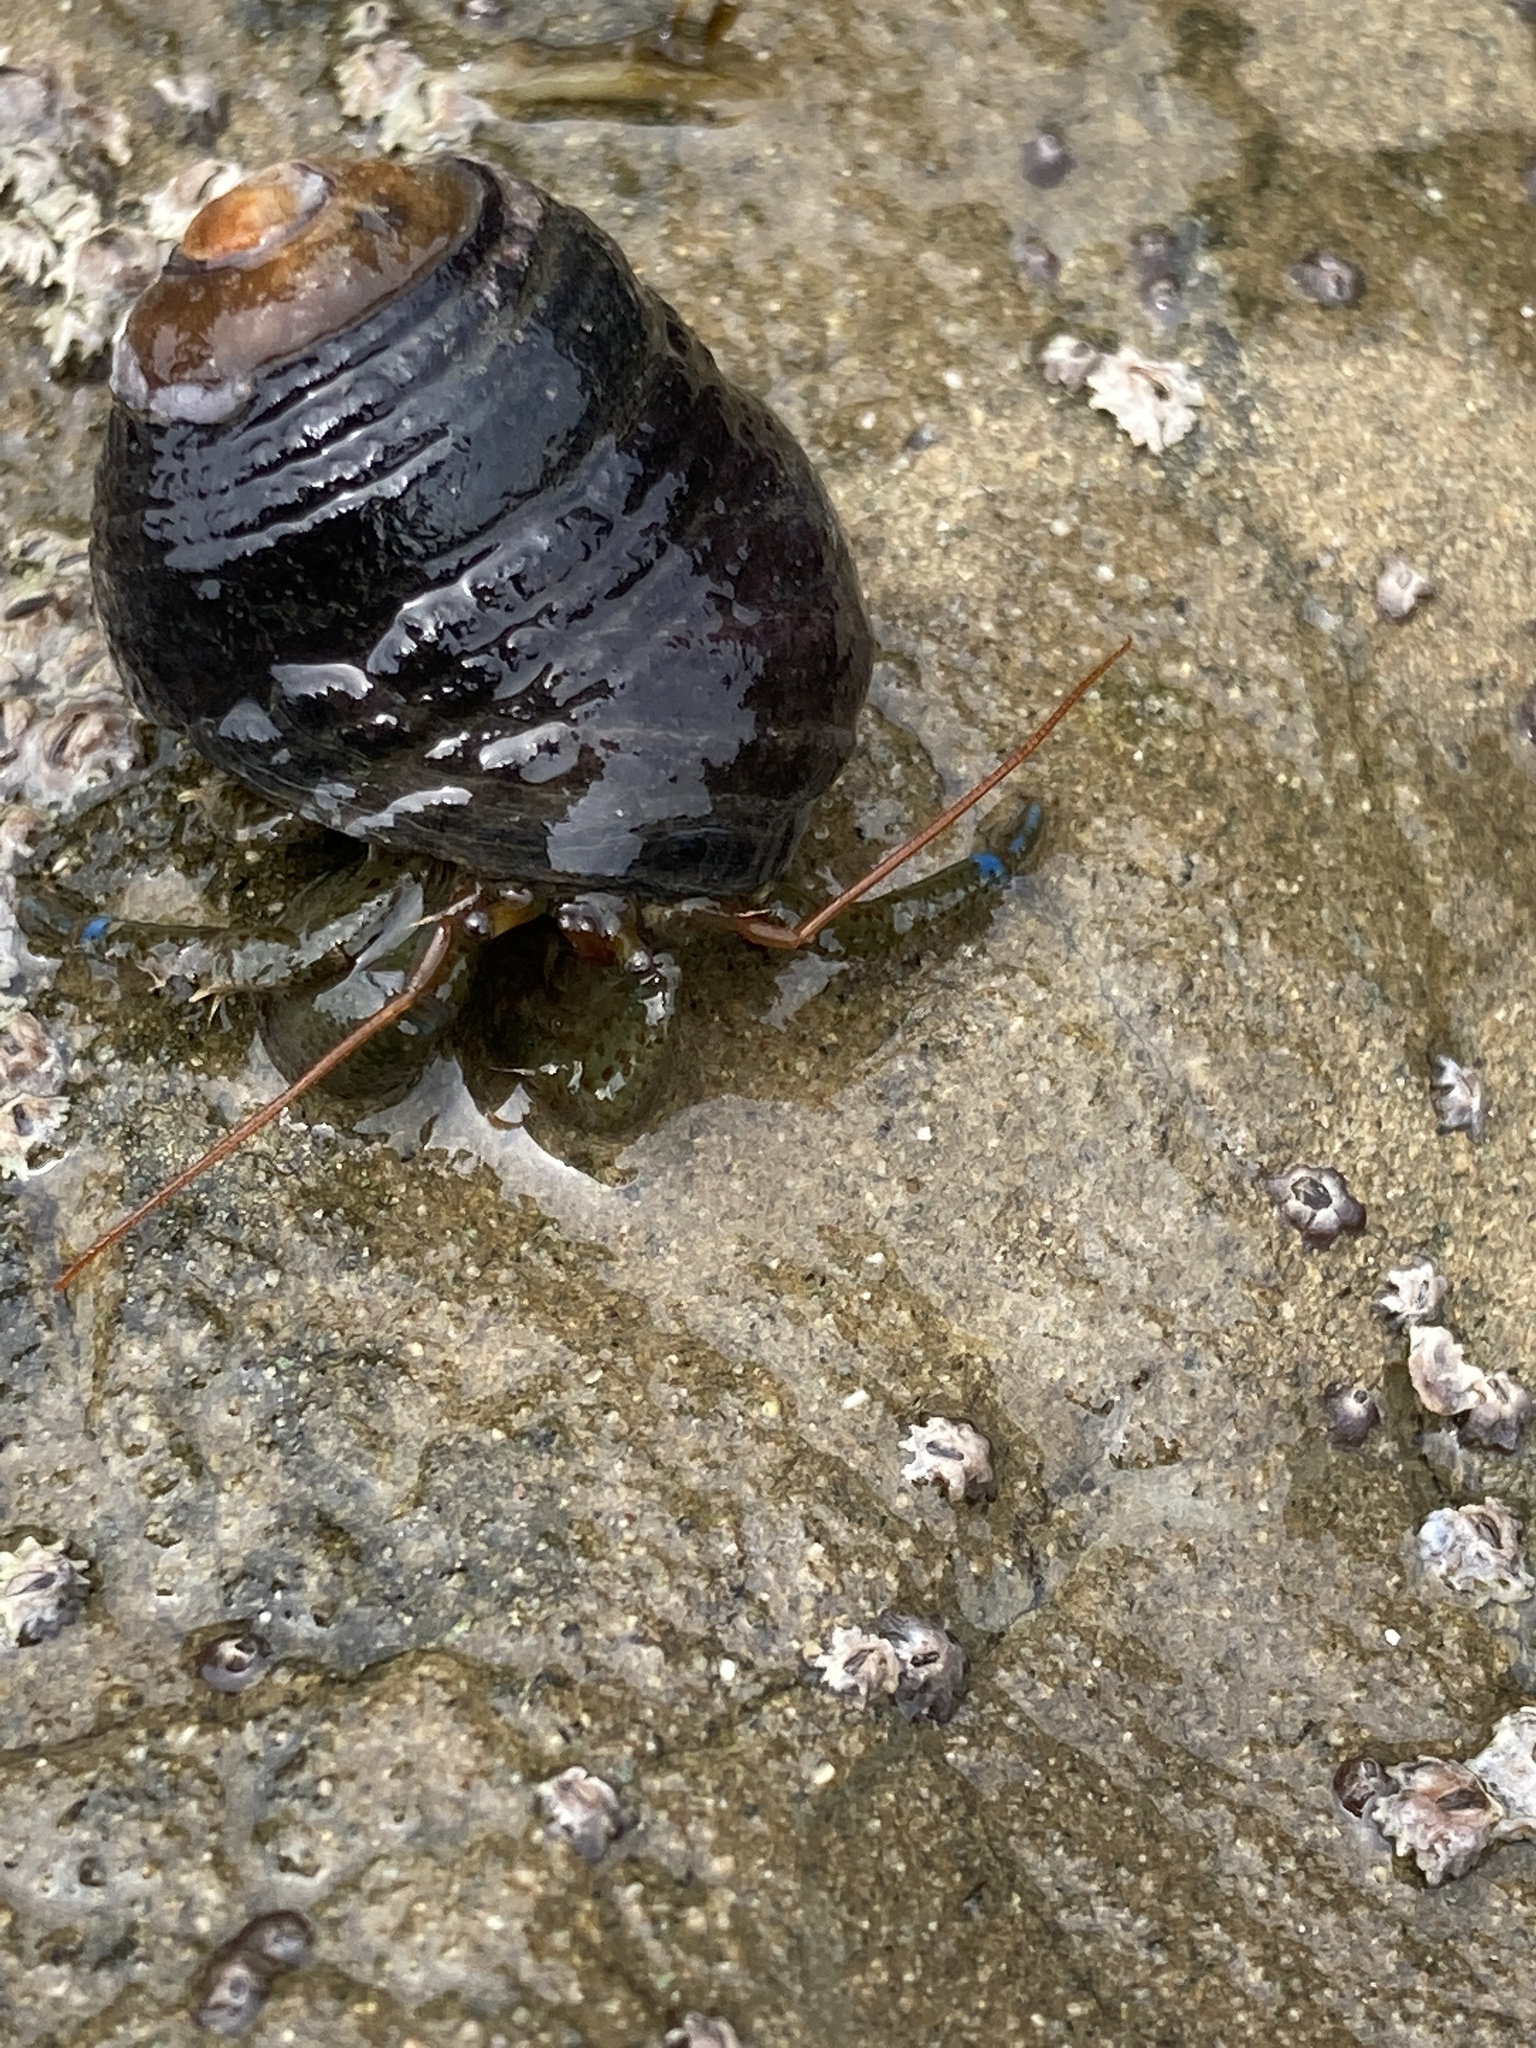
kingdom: Animalia
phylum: Arthropoda
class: Malacostraca
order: Decapoda
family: Paguridae
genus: Pagurus
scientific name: Pagurus samuelis
